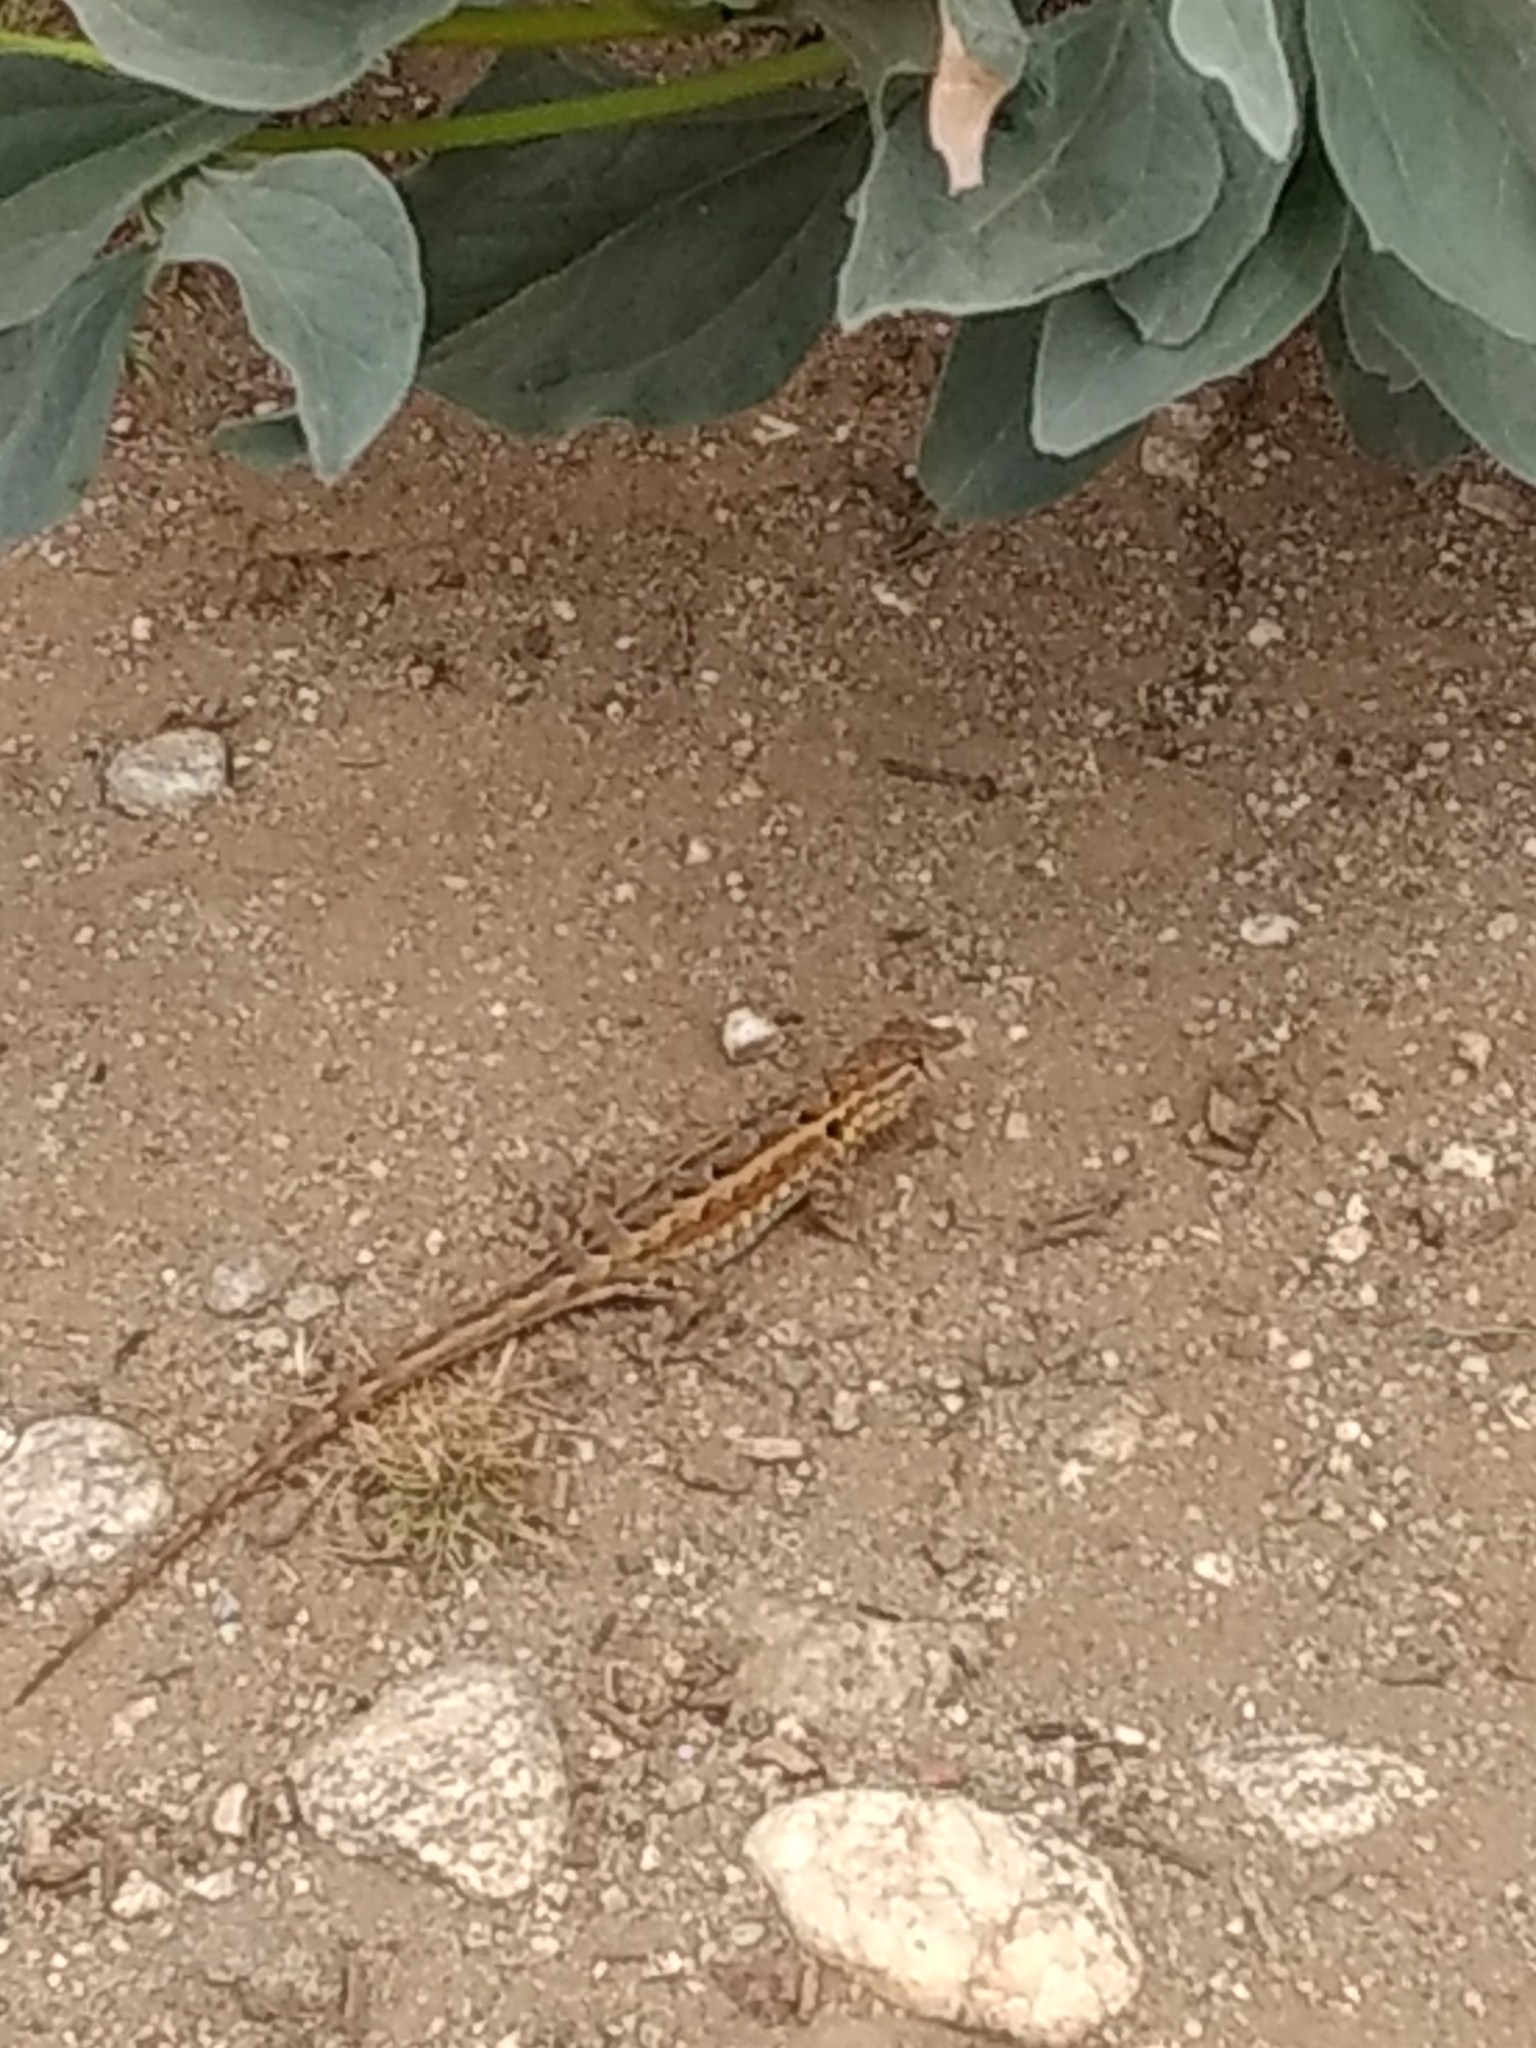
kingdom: Animalia
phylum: Chordata
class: Squamata
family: Phrynosomatidae
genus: Uta
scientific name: Uta stansburiana
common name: Side-blotched lizard
